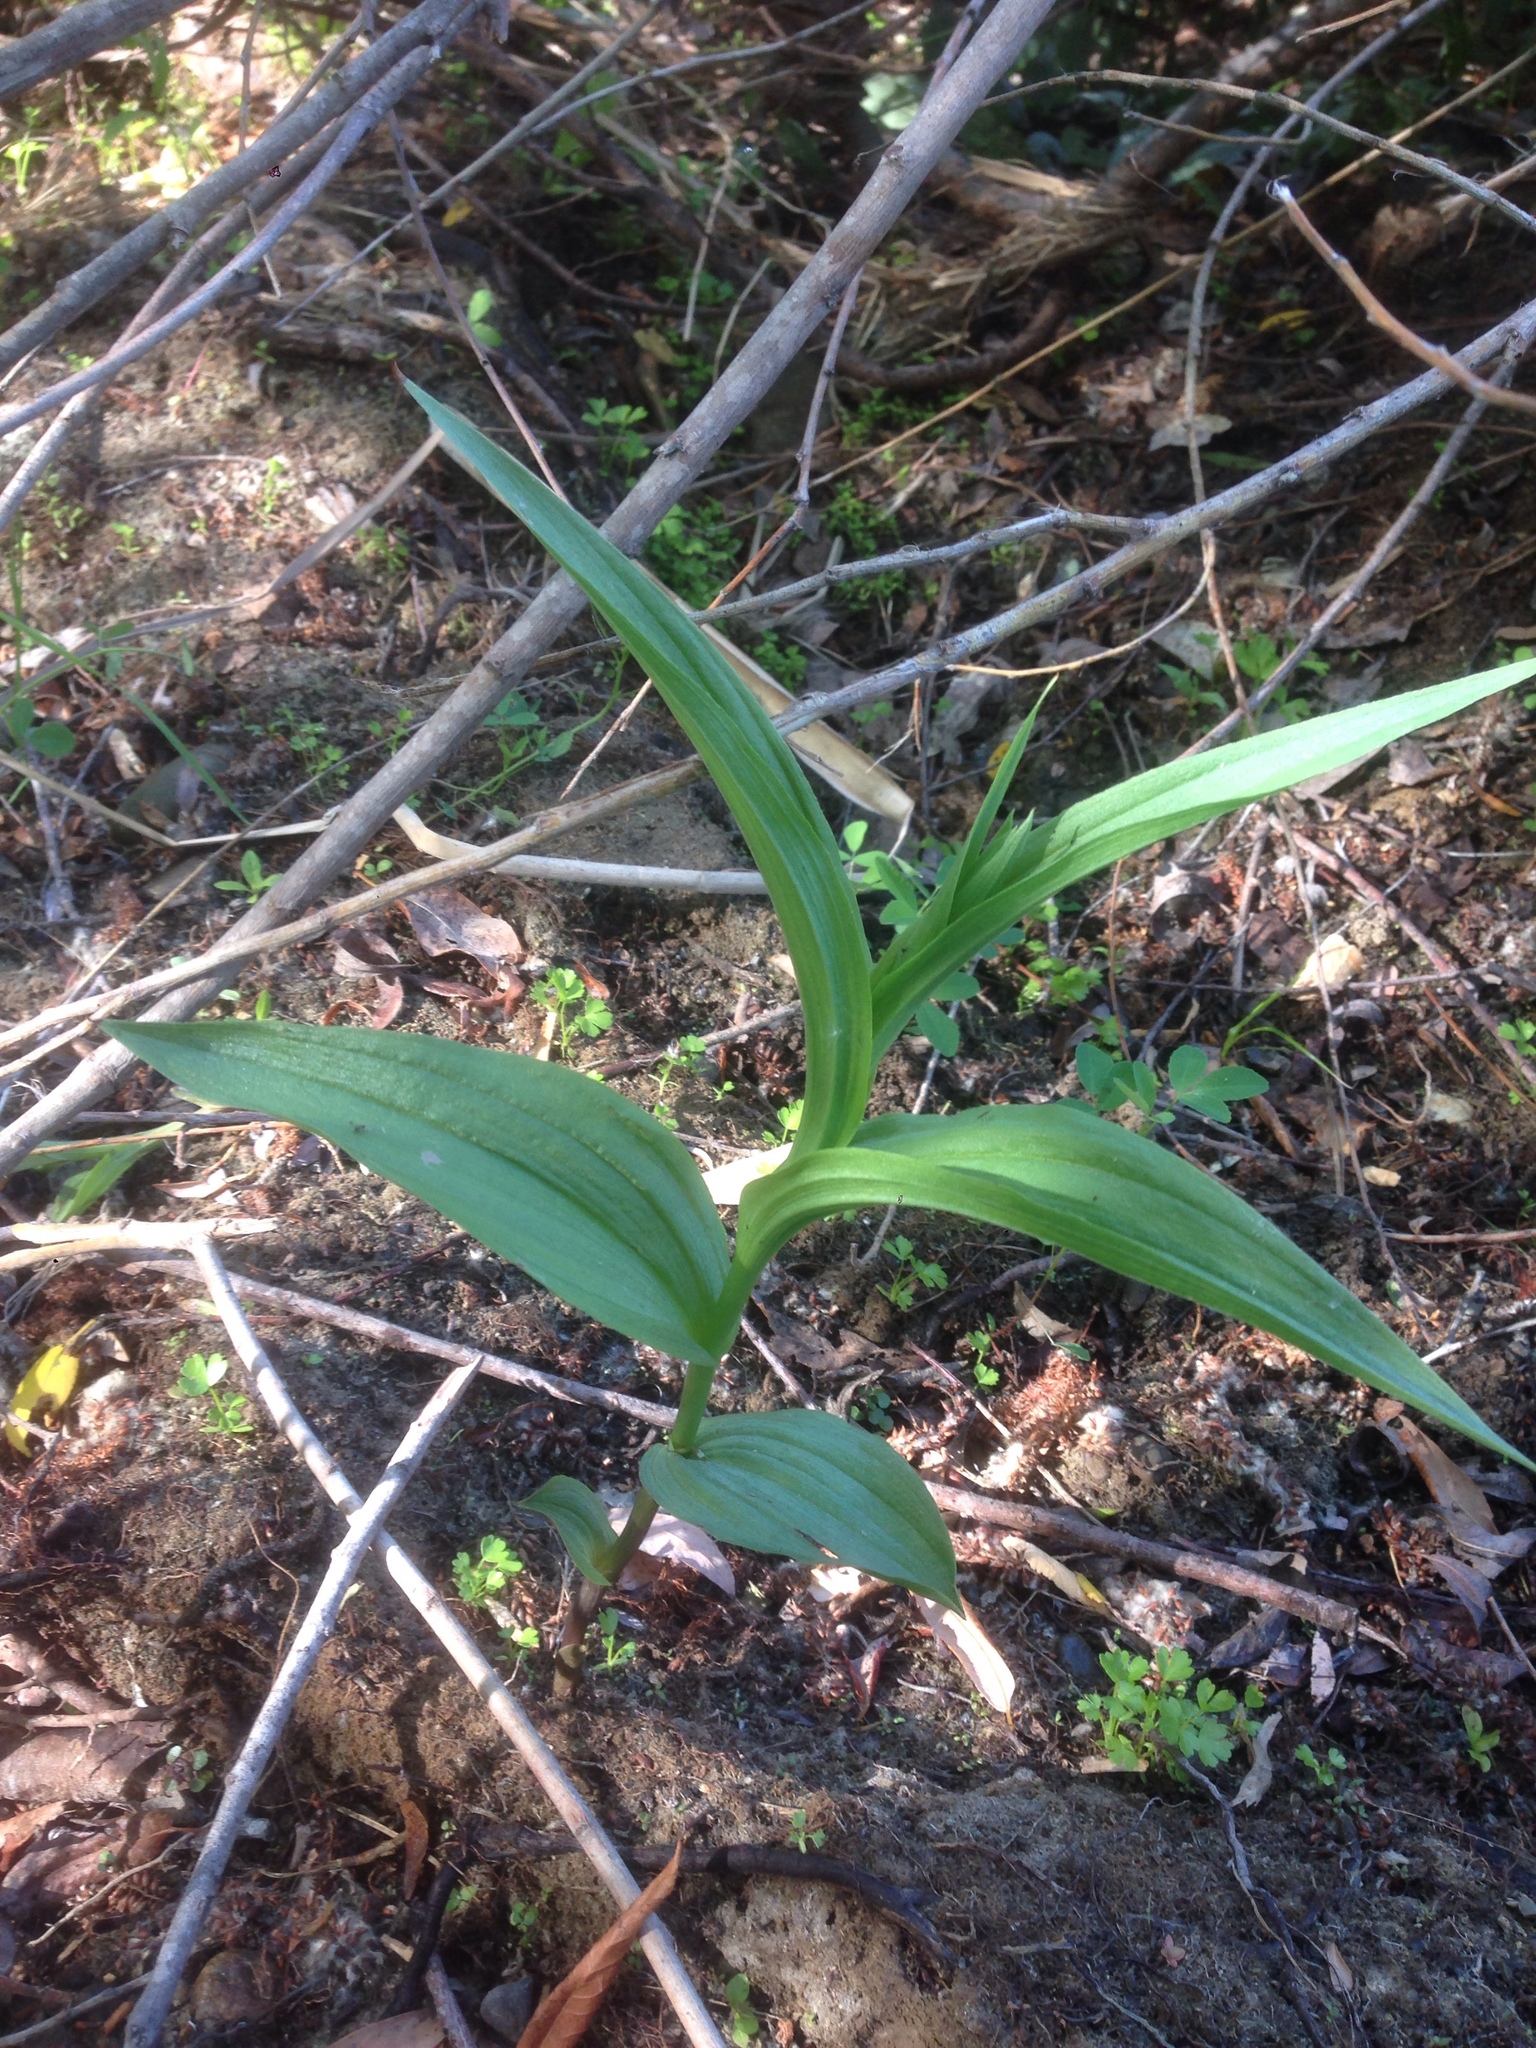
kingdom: Plantae
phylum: Tracheophyta
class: Liliopsida
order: Asparagales
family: Orchidaceae
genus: Epipactis
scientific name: Epipactis gigantea
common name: Chatterbox
